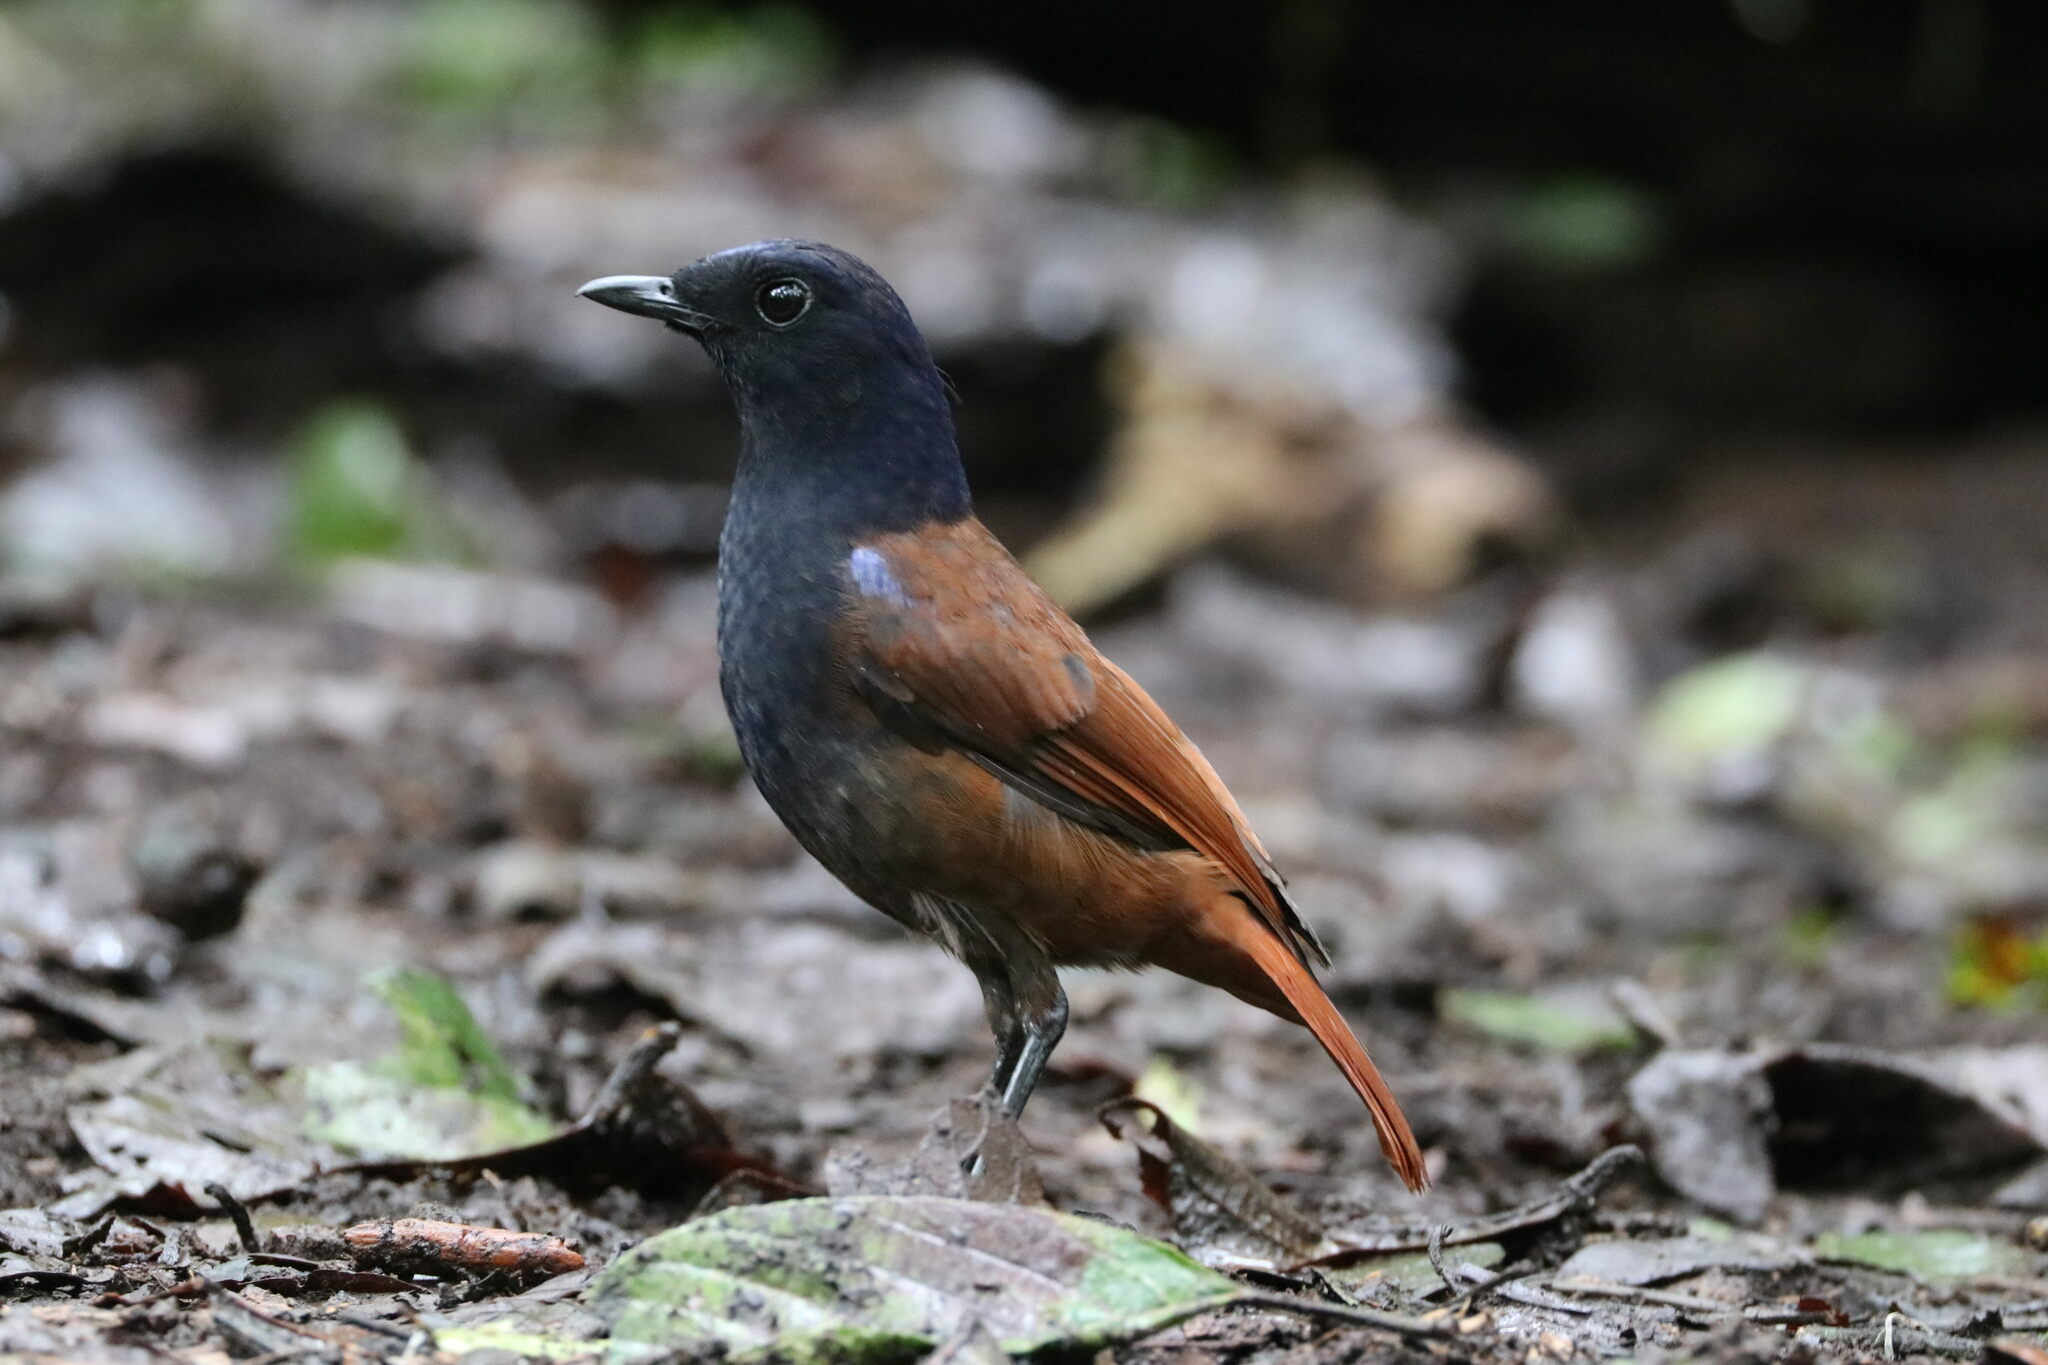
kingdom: Animalia
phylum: Chordata
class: Aves
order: Passeriformes
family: Muscicapidae
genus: Myophonus
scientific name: Myophonus castaneus
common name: Brown-winged whistling thrush
